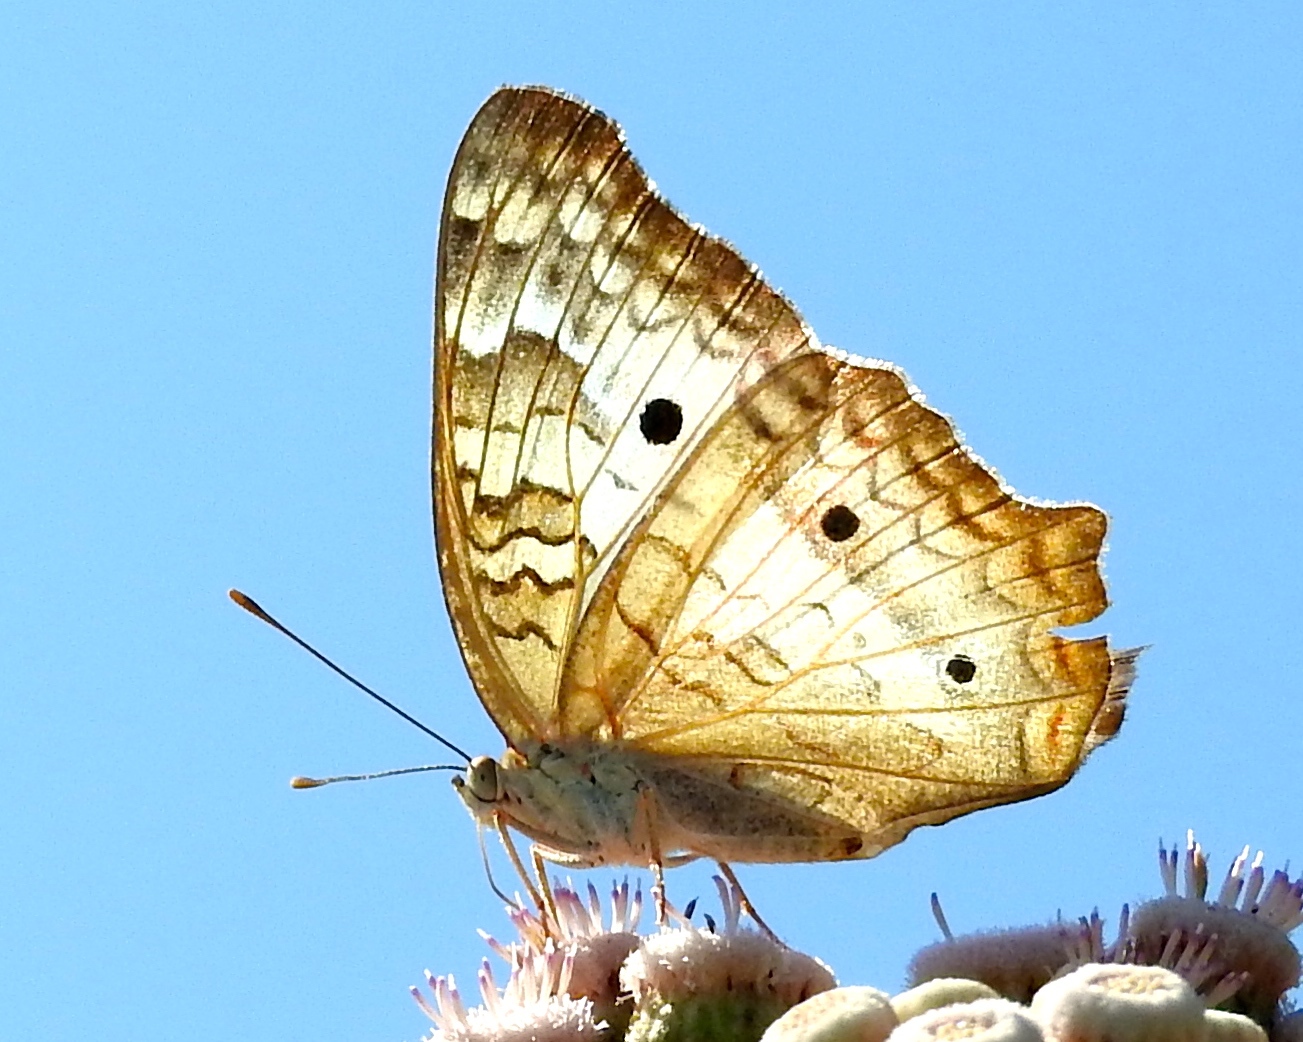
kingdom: Animalia
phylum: Arthropoda
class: Insecta
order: Lepidoptera
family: Nymphalidae
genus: Anartia
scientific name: Anartia jatrophae
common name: White peacock
